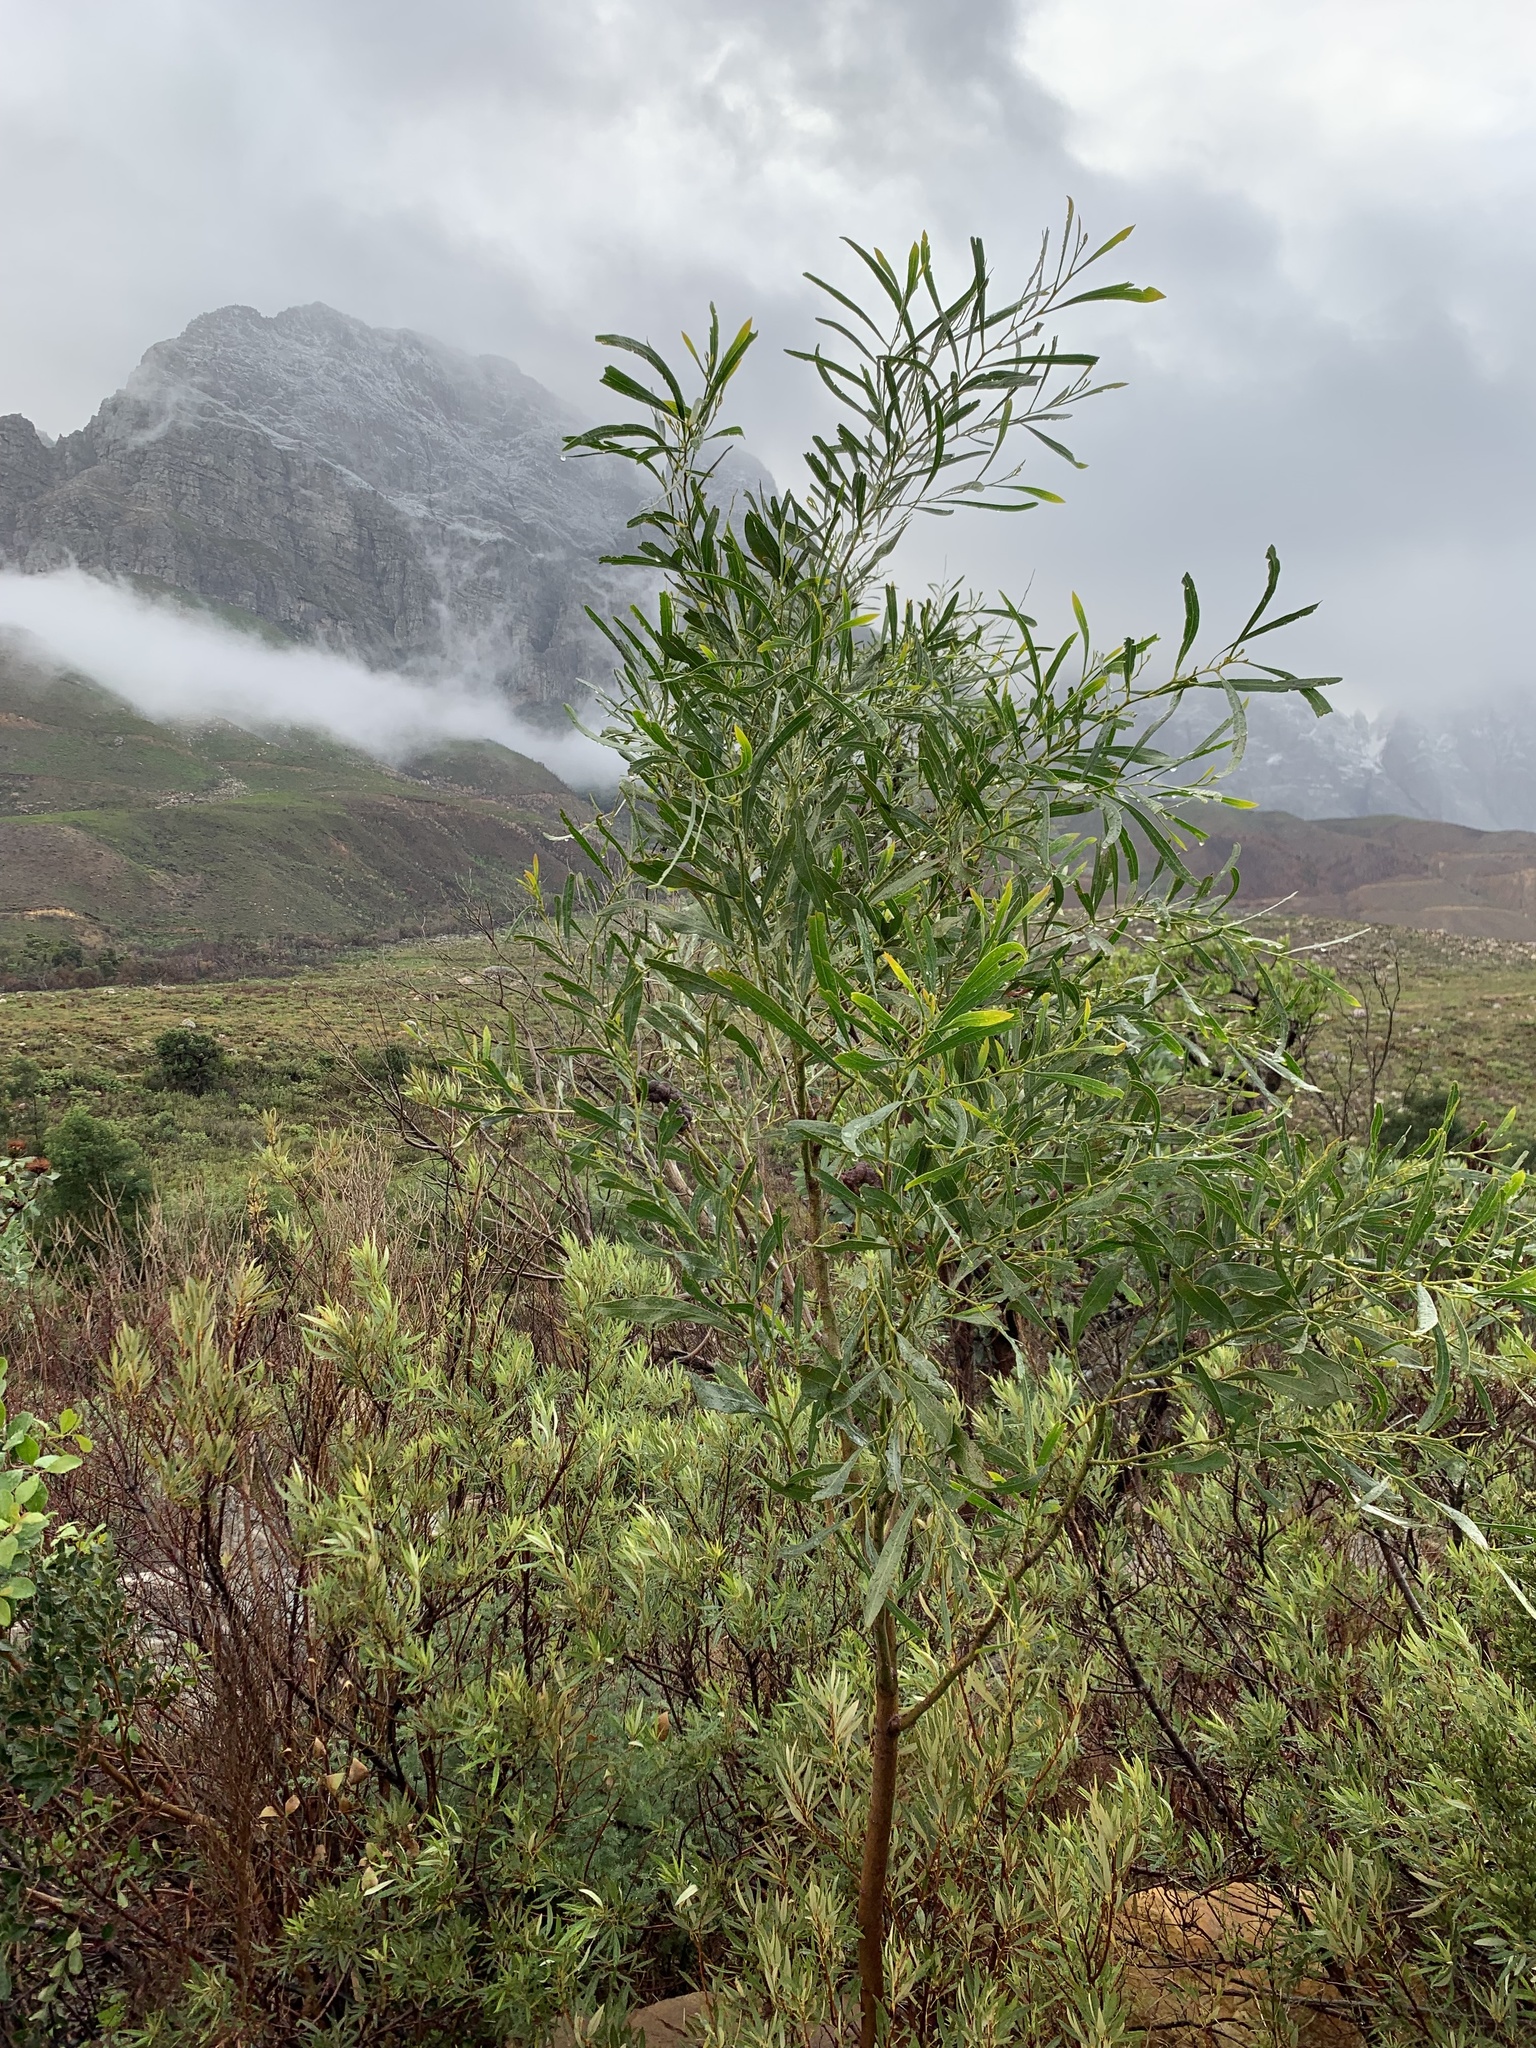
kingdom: Plantae
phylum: Tracheophyta
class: Magnoliopsida
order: Fabales
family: Fabaceae
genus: Acacia
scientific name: Acacia saligna
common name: Orange wattle
